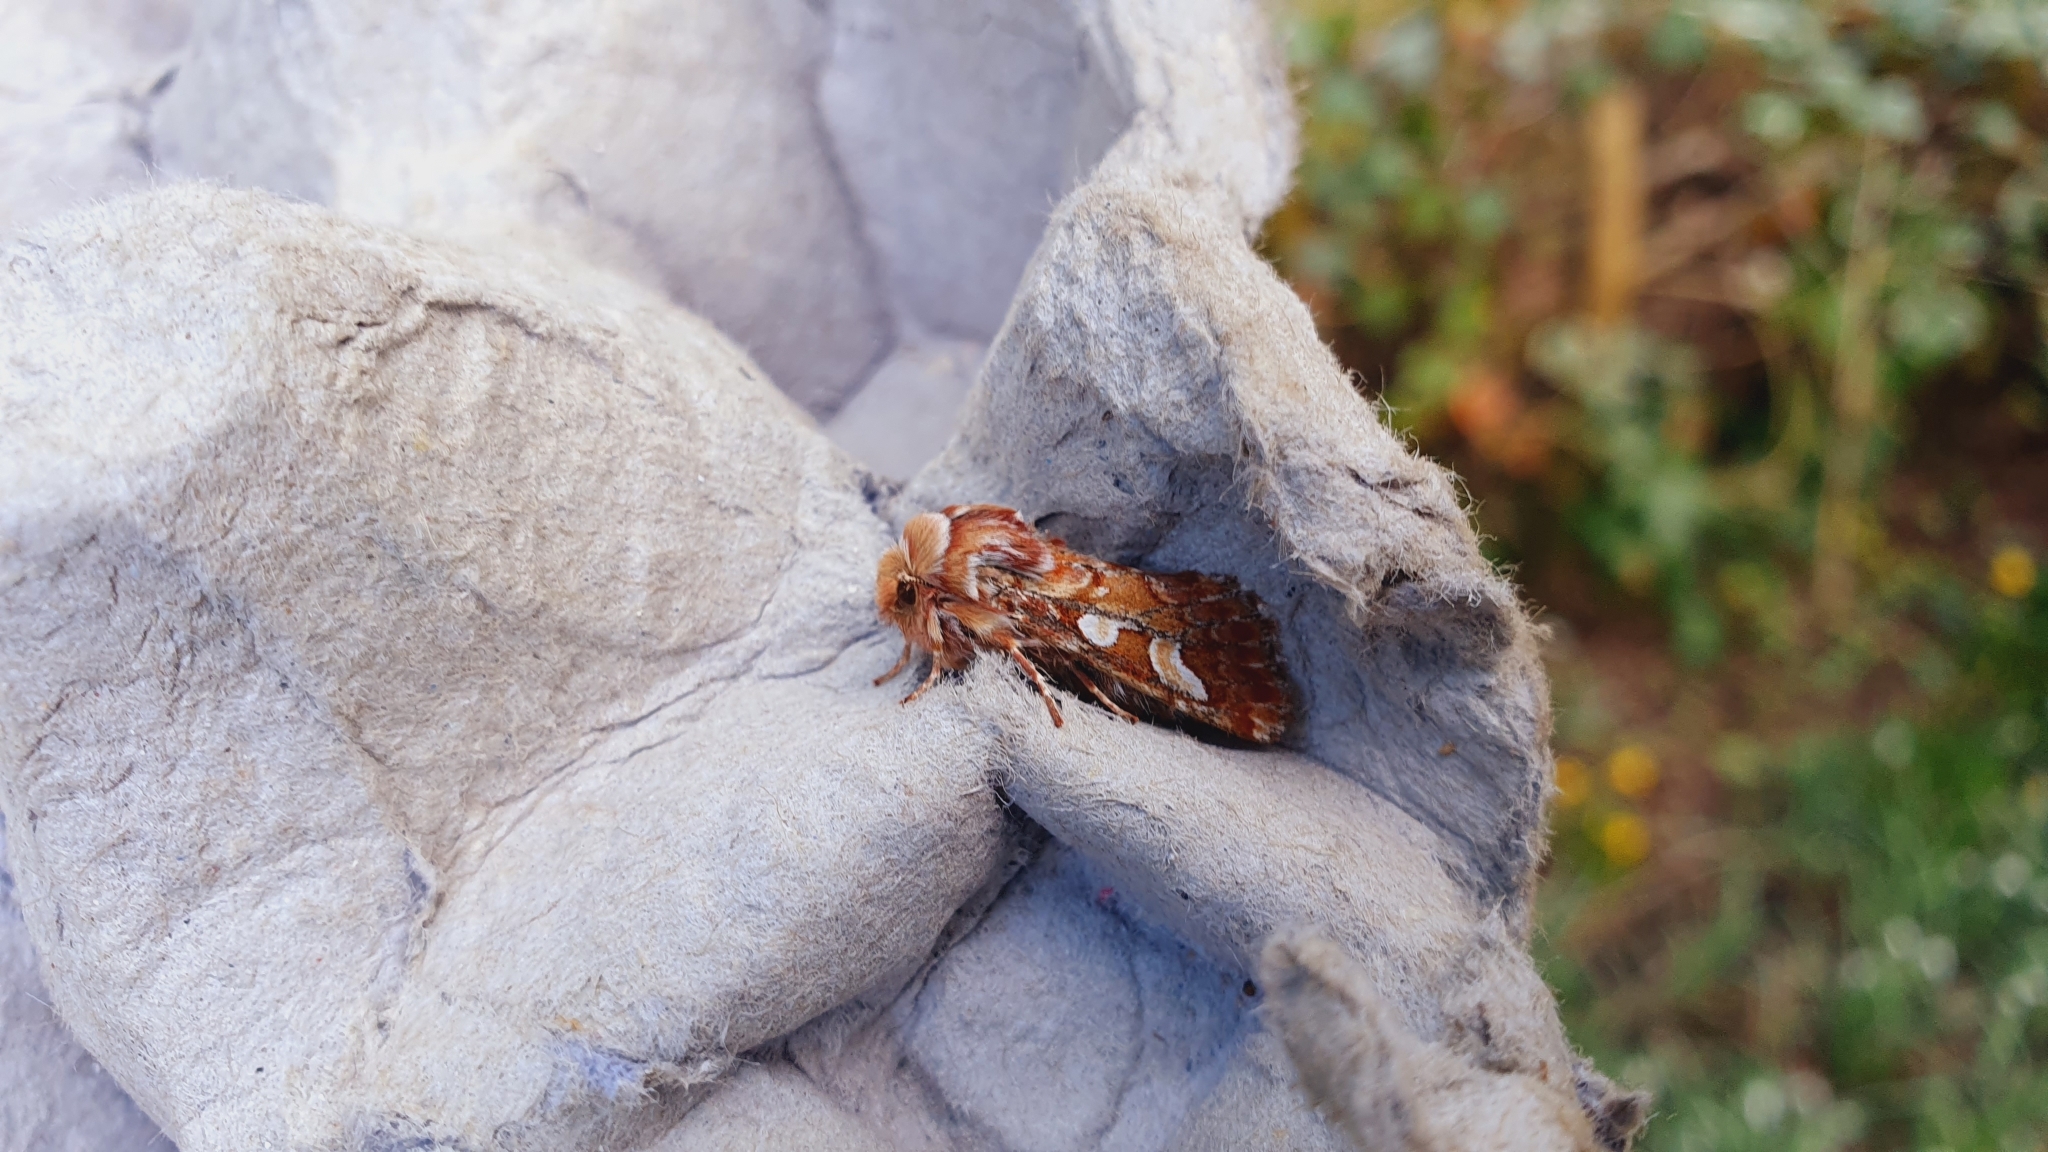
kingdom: Animalia
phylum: Arthropoda
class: Insecta
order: Lepidoptera
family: Noctuidae
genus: Panolis
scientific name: Panolis flammea
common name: Pine beauty
